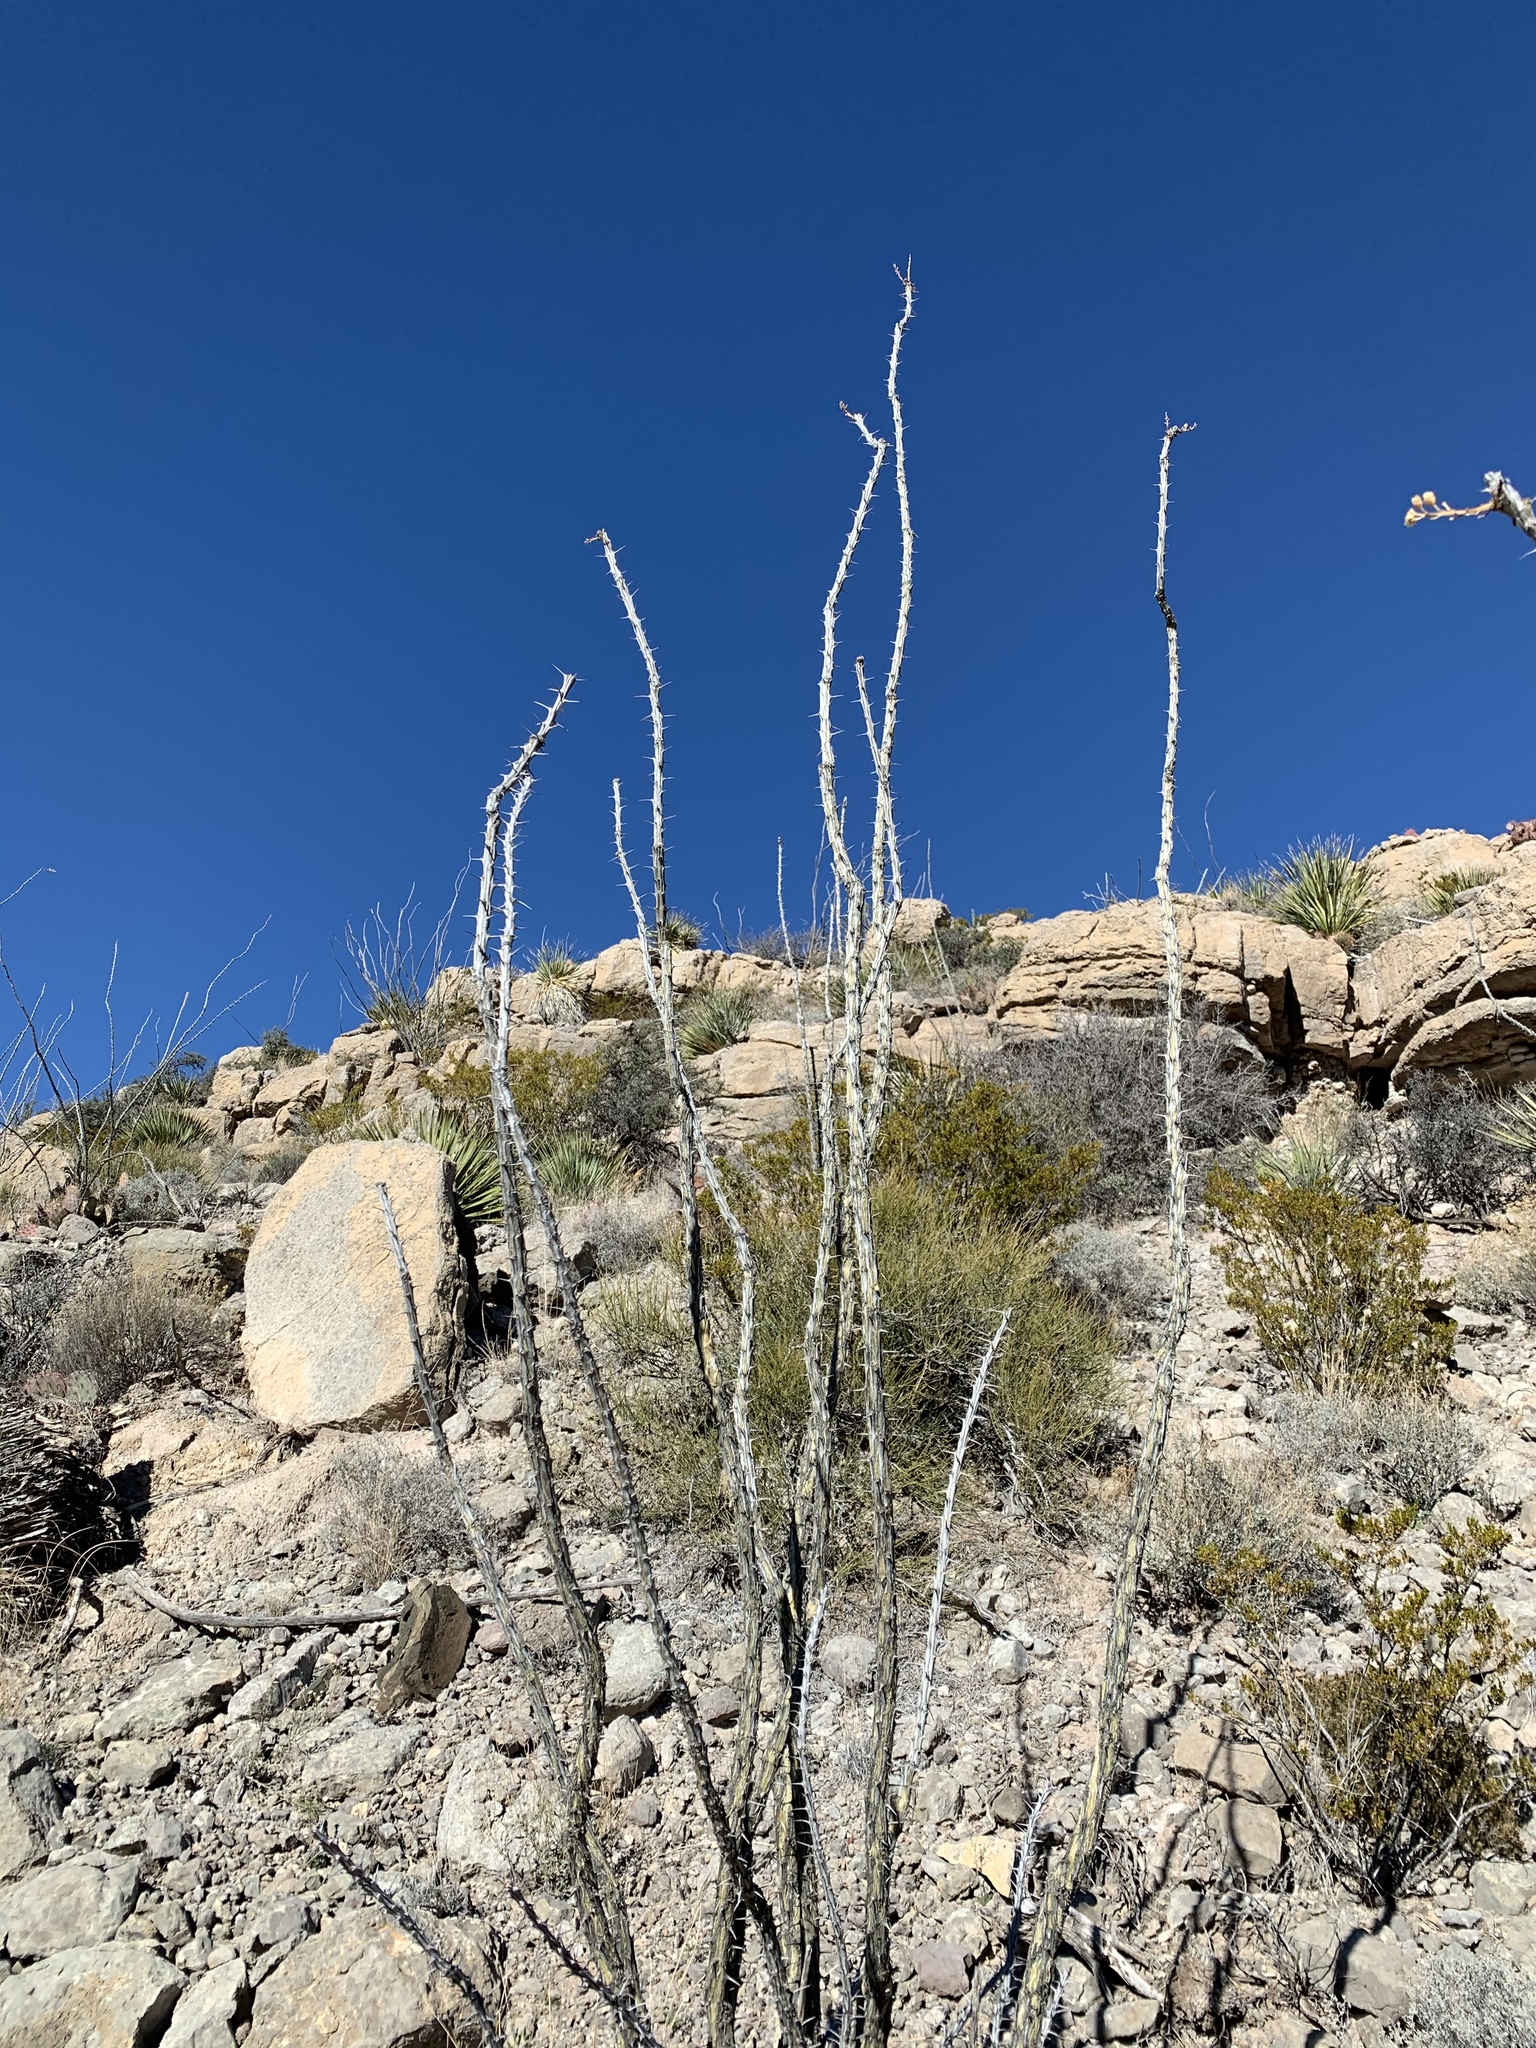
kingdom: Plantae
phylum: Tracheophyta
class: Magnoliopsida
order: Ericales
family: Fouquieriaceae
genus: Fouquieria
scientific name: Fouquieria splendens
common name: Vine-cactus
